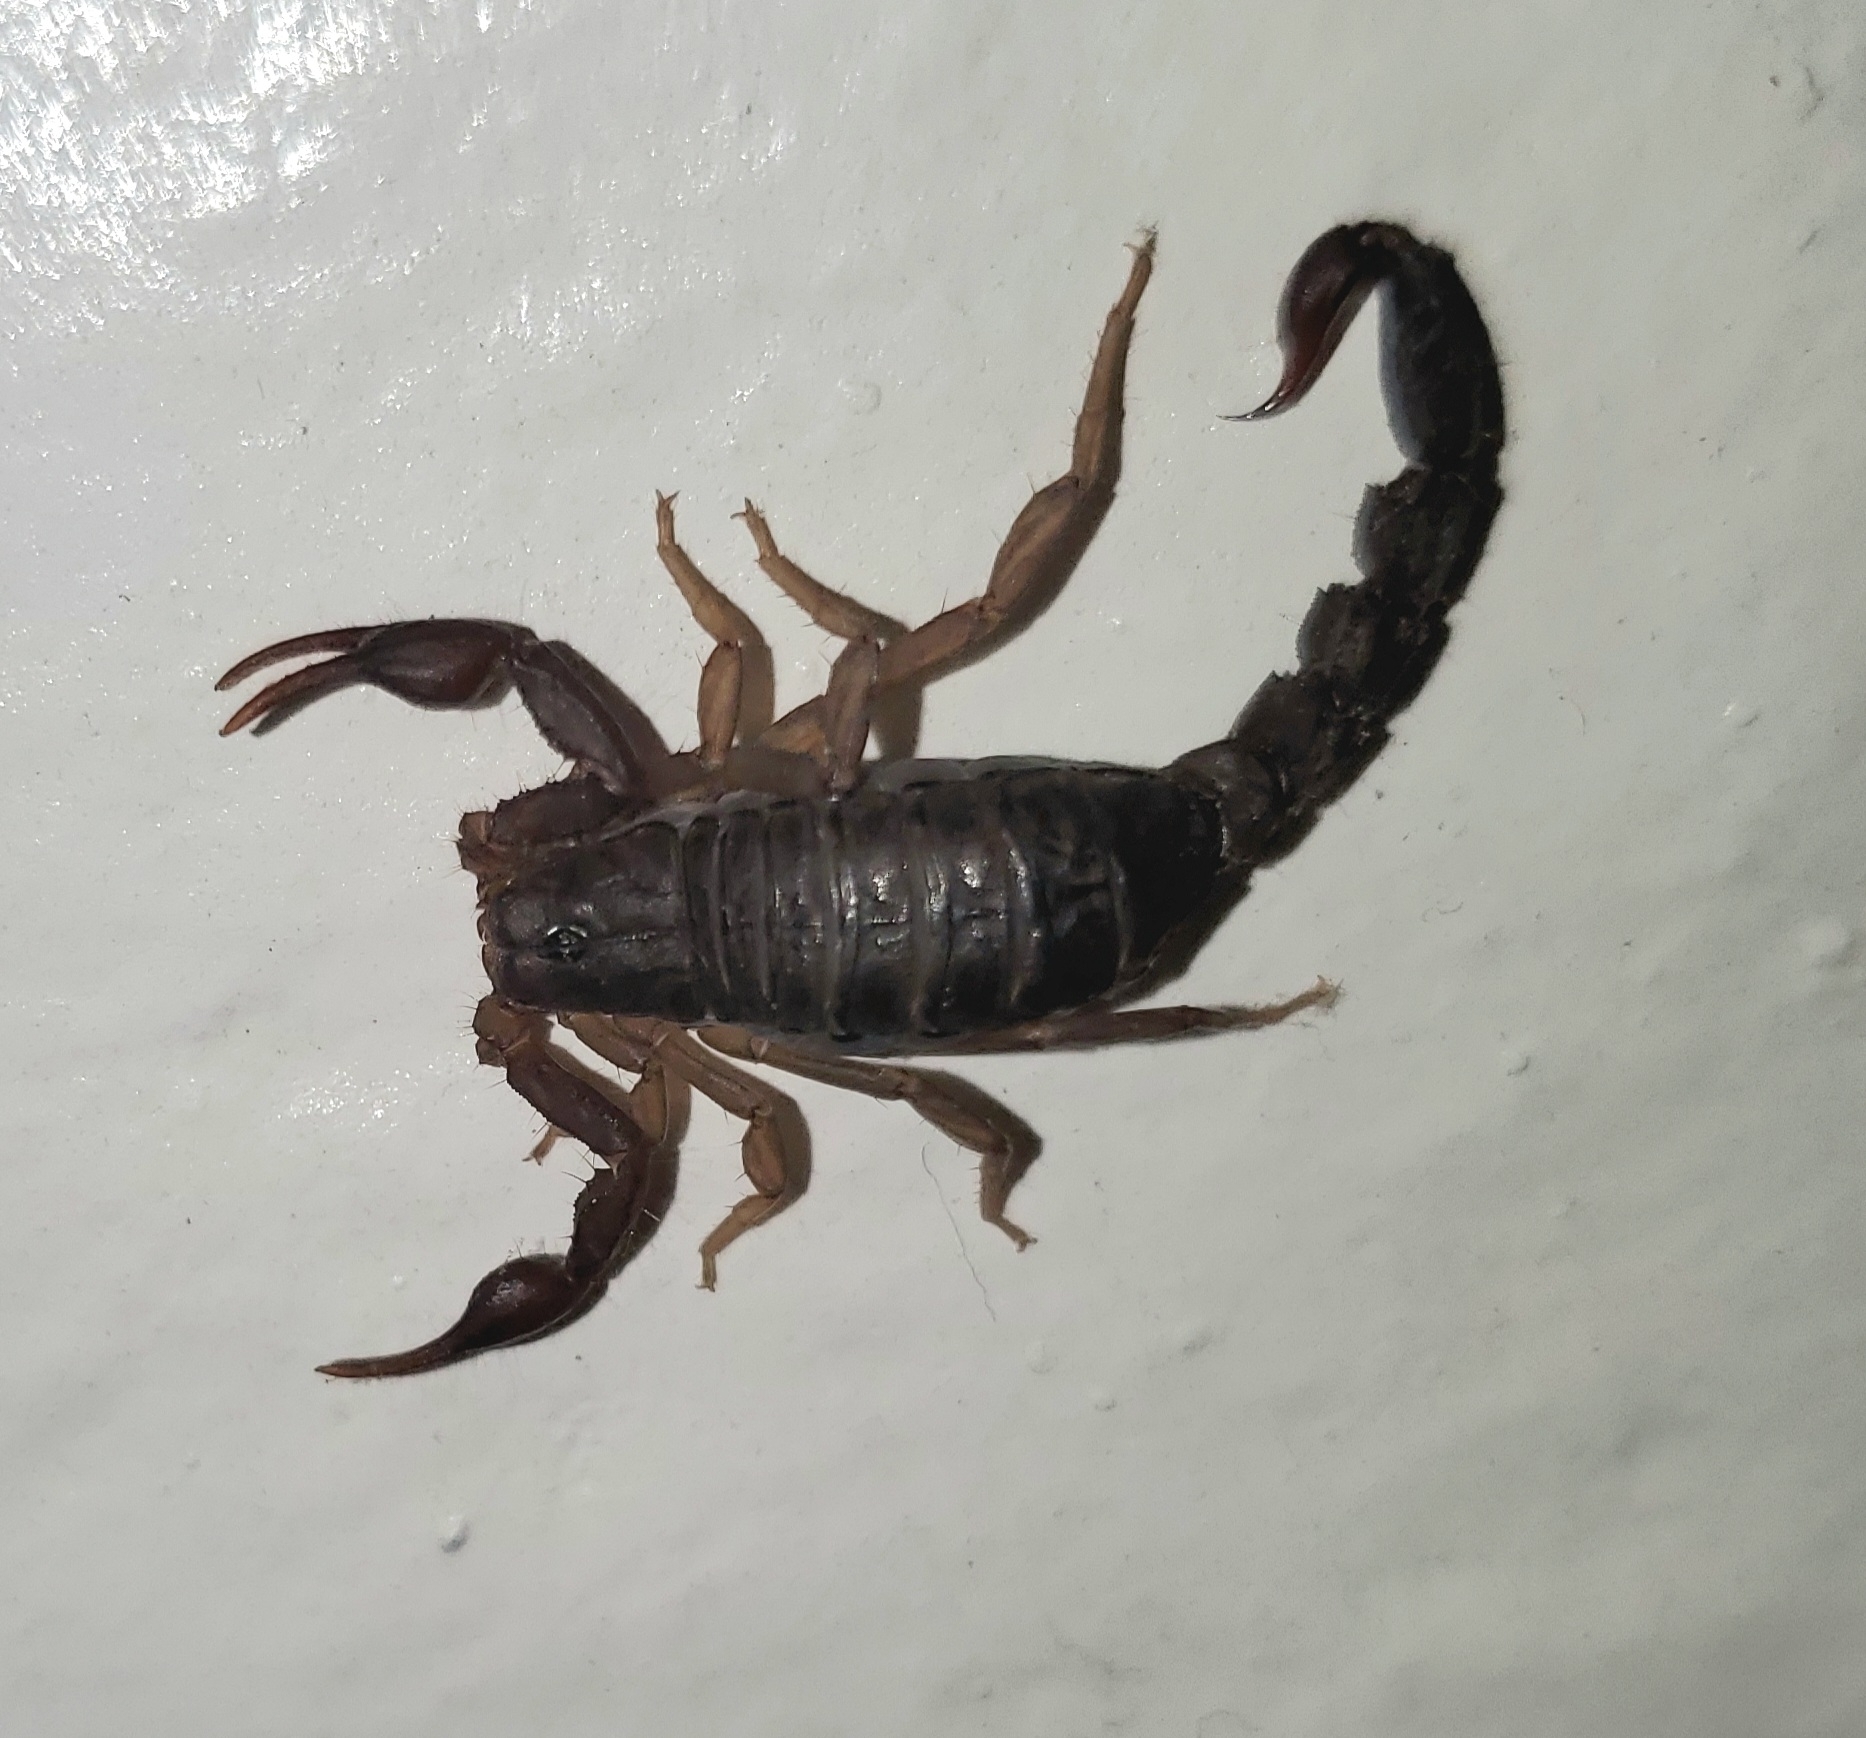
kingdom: Animalia
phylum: Arthropoda
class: Arachnida
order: Scorpiones
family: Vaejovidae
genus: Vaejovis
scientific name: Vaejovis carolinianus
